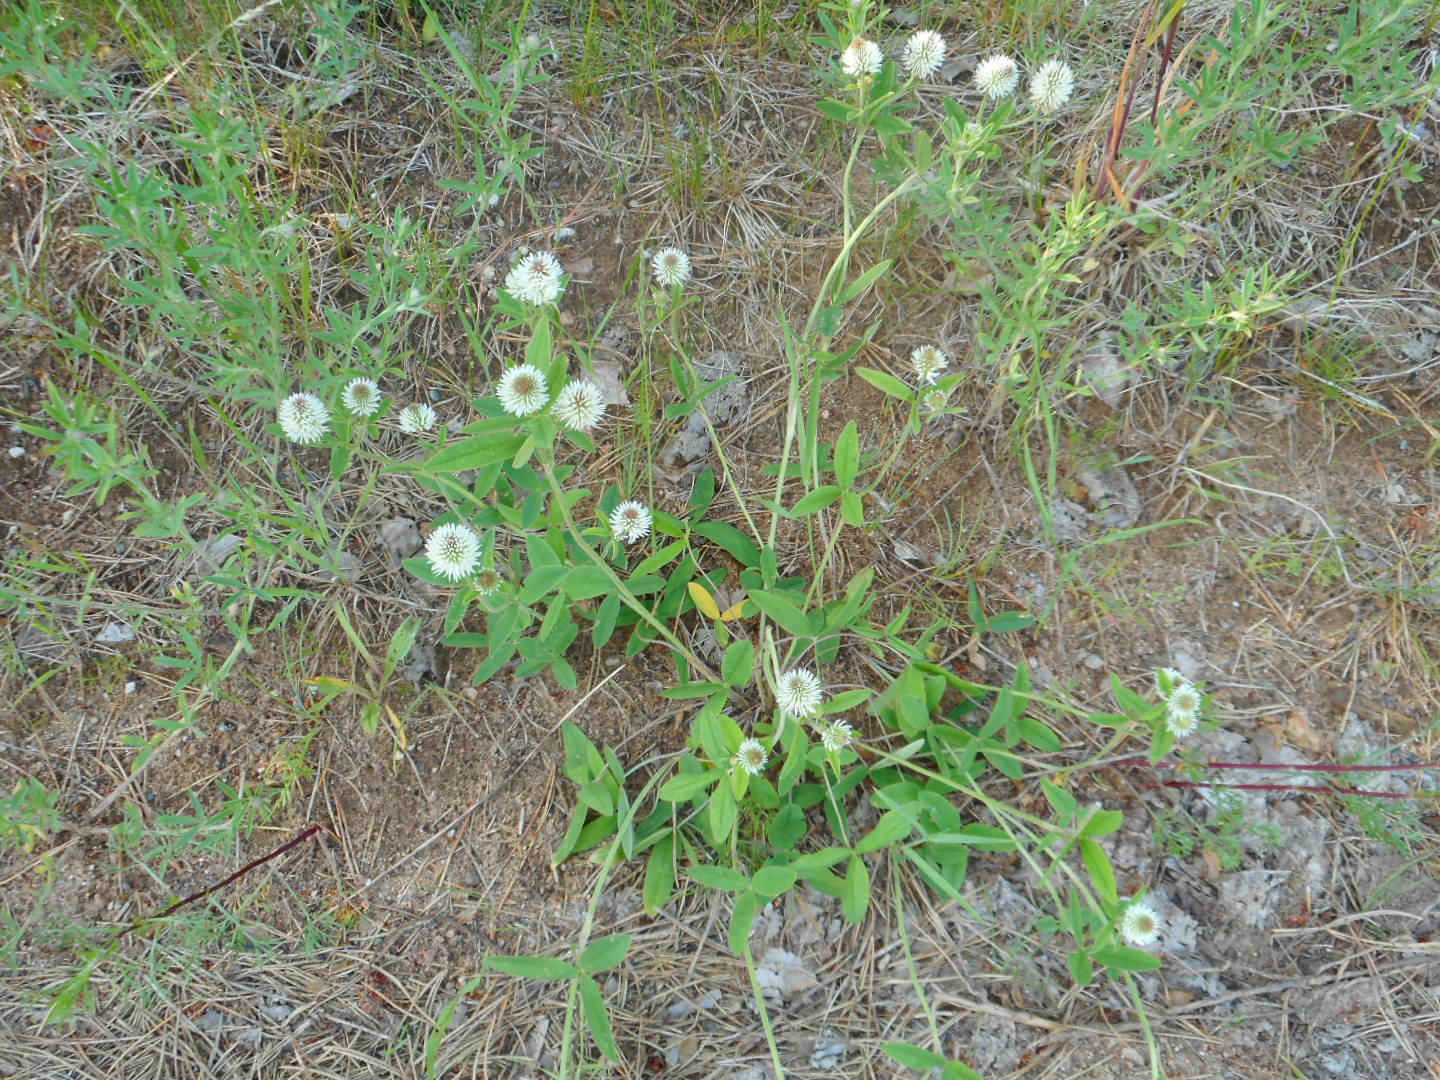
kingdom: Plantae
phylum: Tracheophyta
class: Magnoliopsida
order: Fabales
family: Fabaceae
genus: Trifolium
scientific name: Trifolium montanum
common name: Mountain clover
